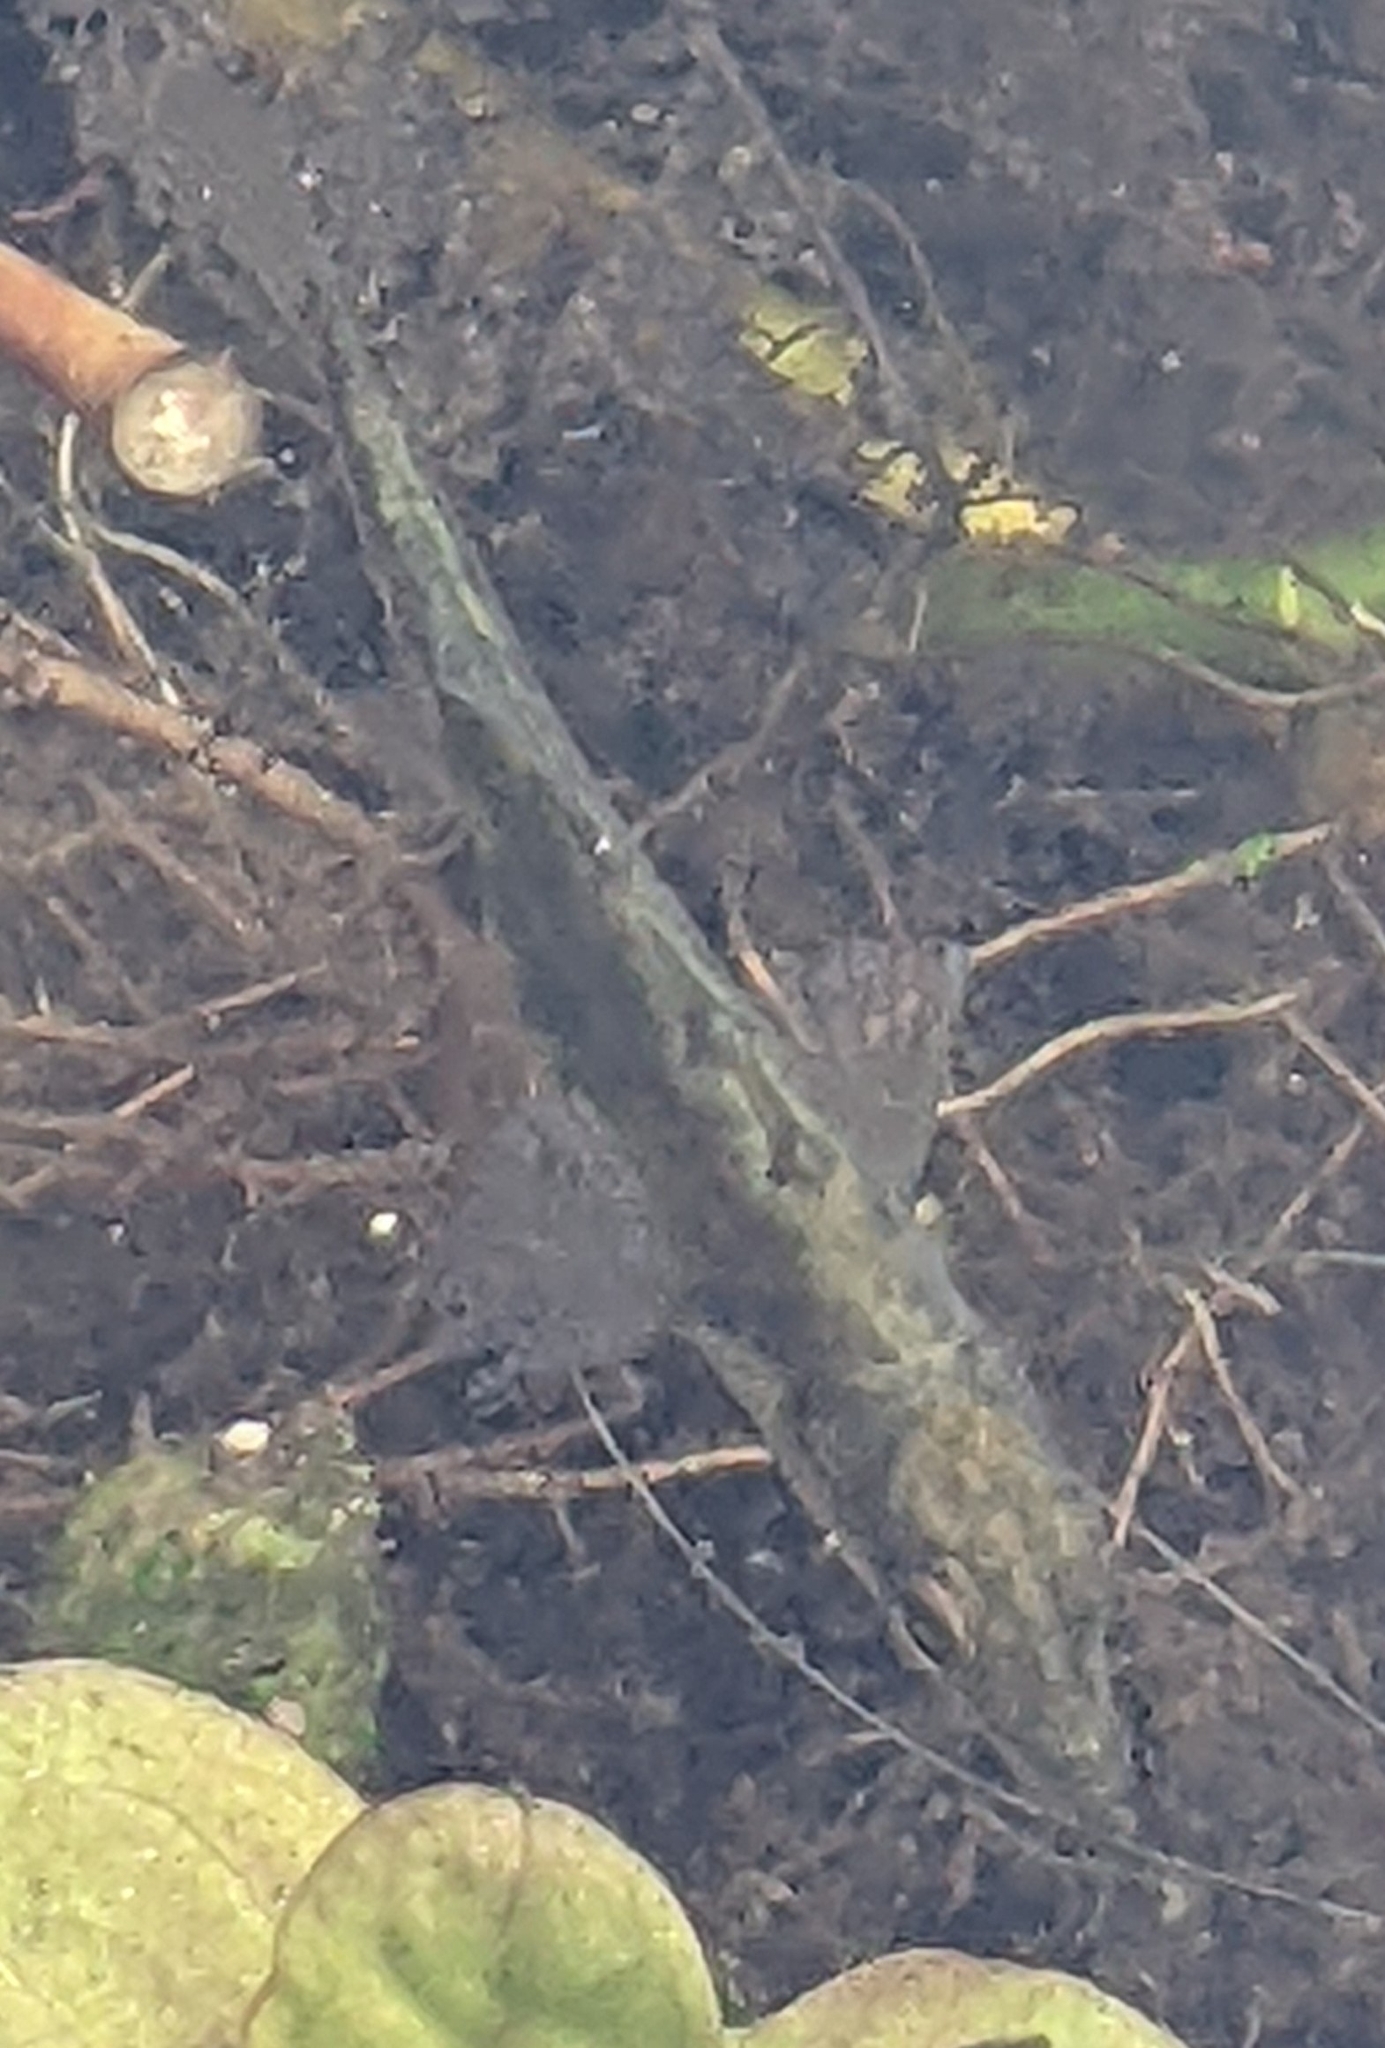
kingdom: Animalia
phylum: Chordata
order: Gasterosteiformes
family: Gasterosteidae
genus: Gasterosteus
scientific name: Gasterosteus aculeatus
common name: Three-spined stickleback
